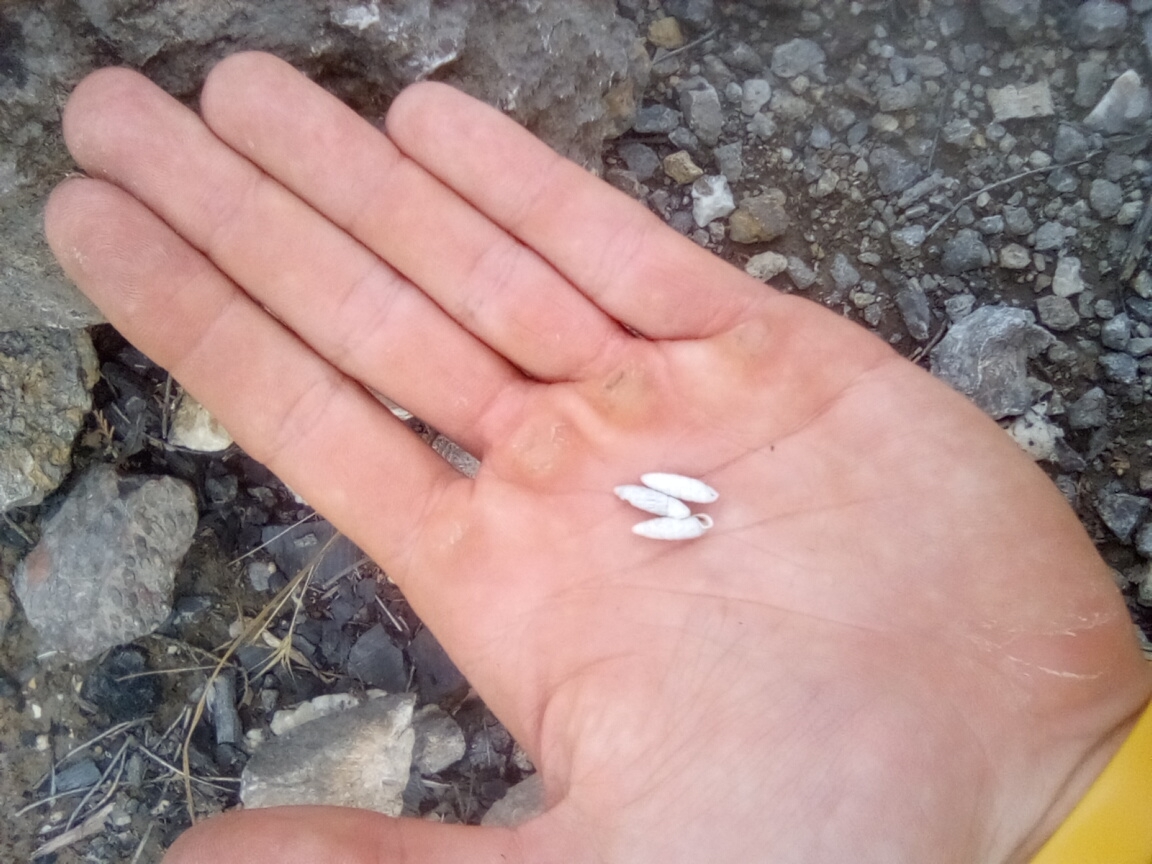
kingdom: Animalia
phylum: Mollusca
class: Gastropoda
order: Stylommatophora
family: Enidae
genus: Brephulopsis
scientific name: Brephulopsis bidens
